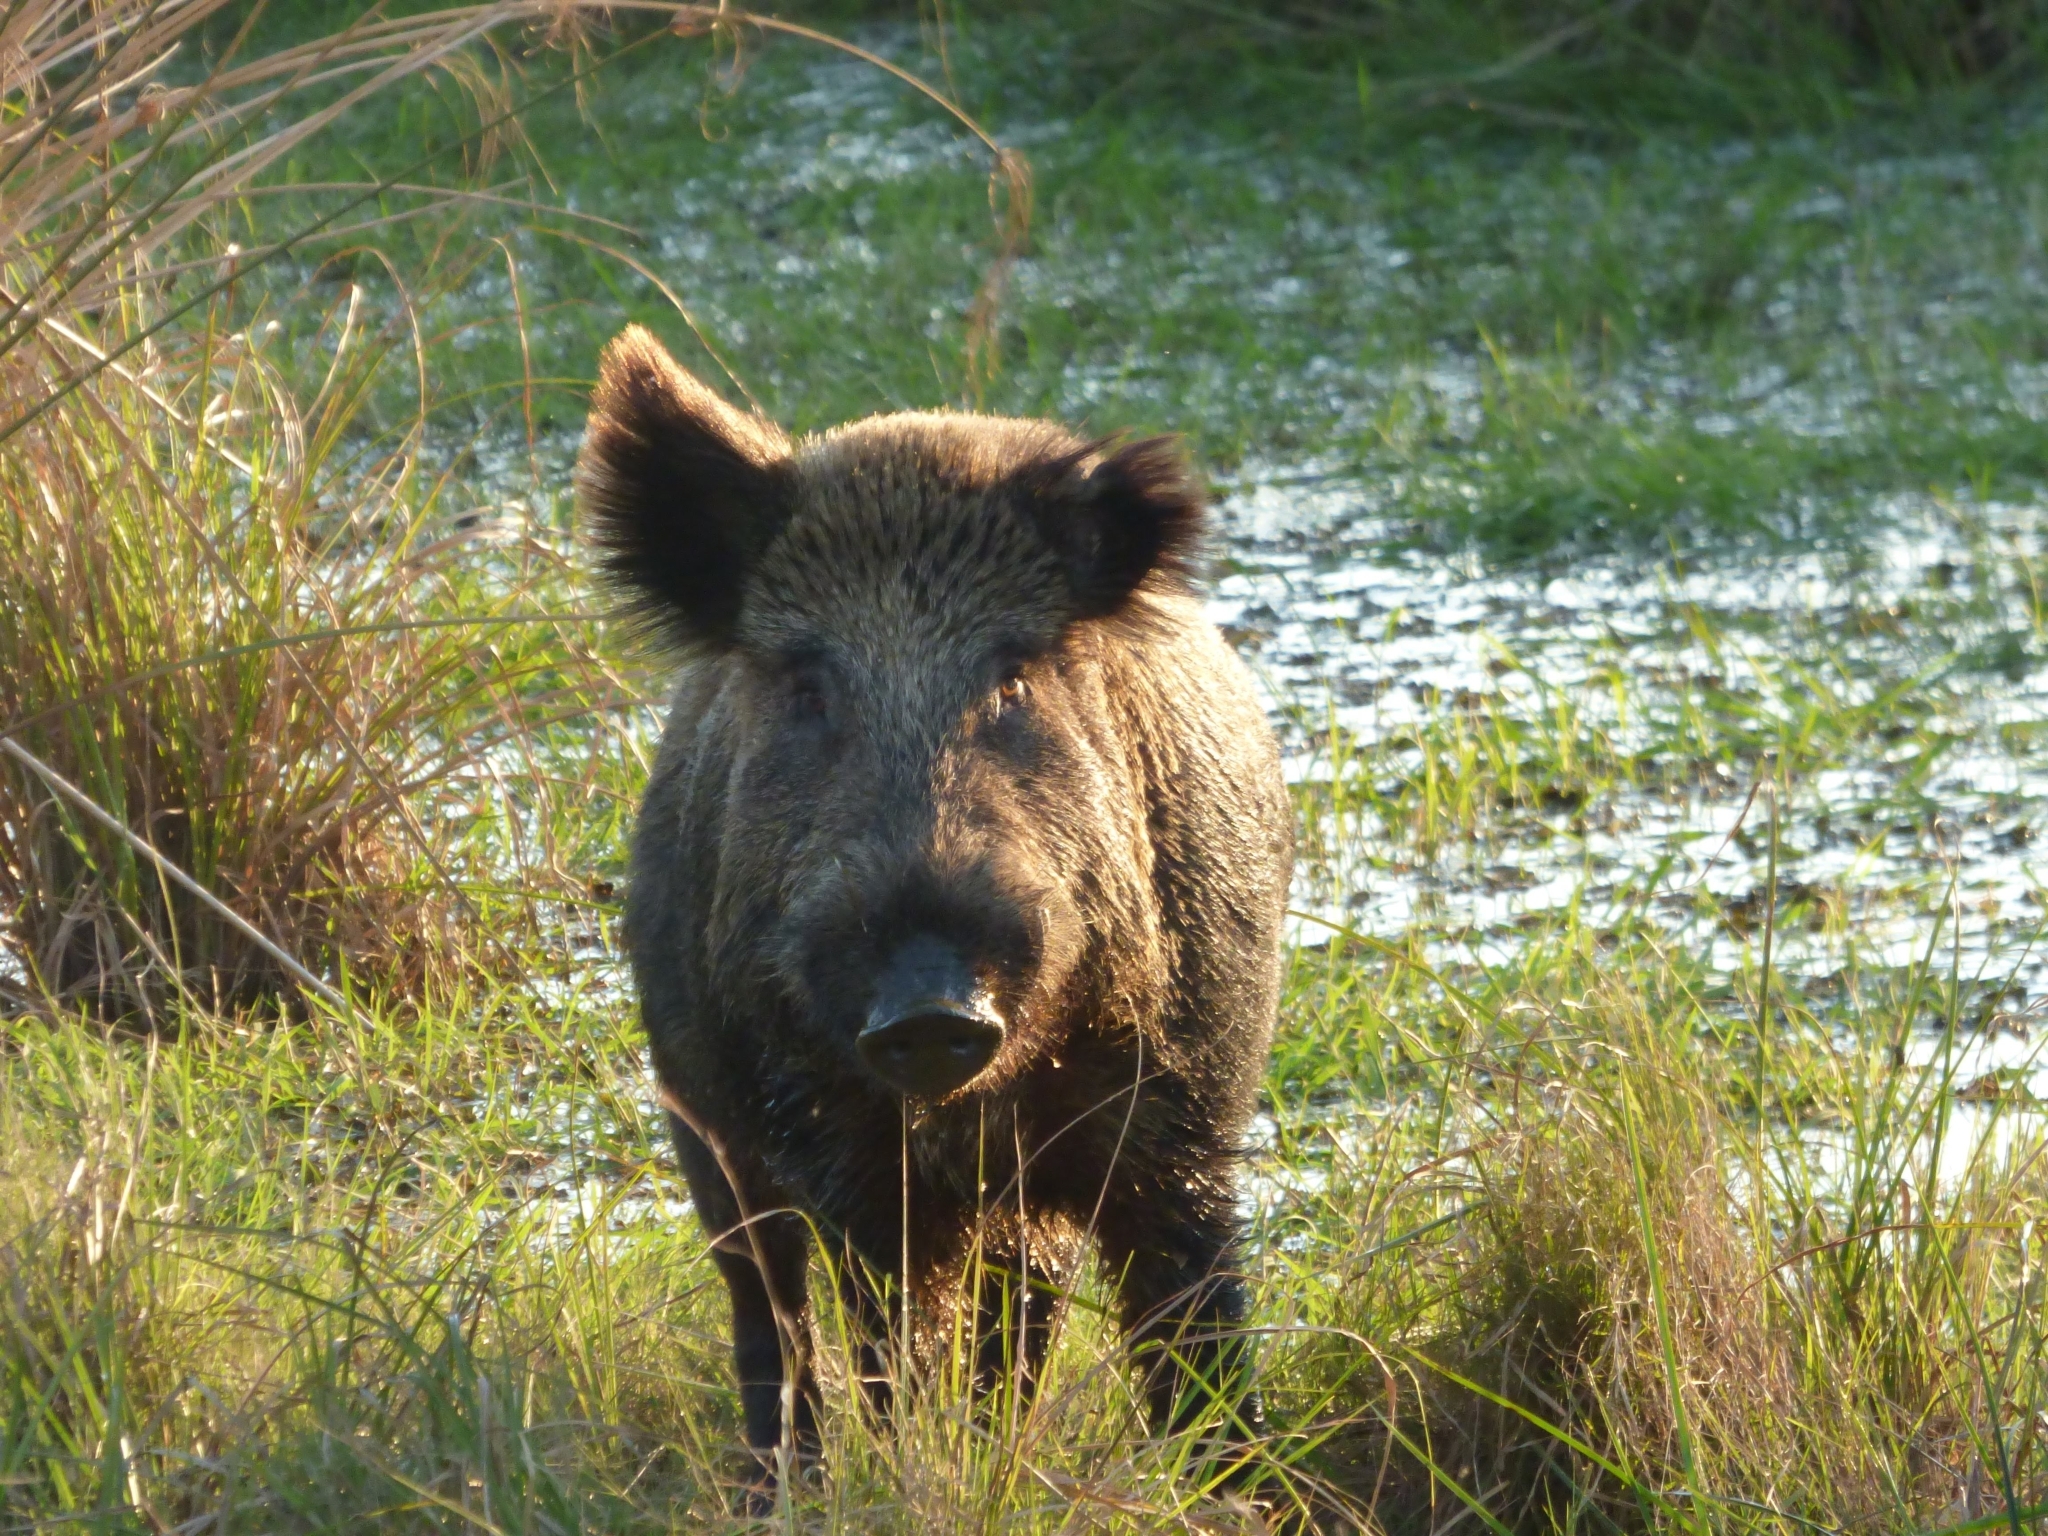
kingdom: Animalia
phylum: Chordata
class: Mammalia
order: Artiodactyla
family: Suidae
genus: Sus
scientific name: Sus scrofa
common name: Wild boar
